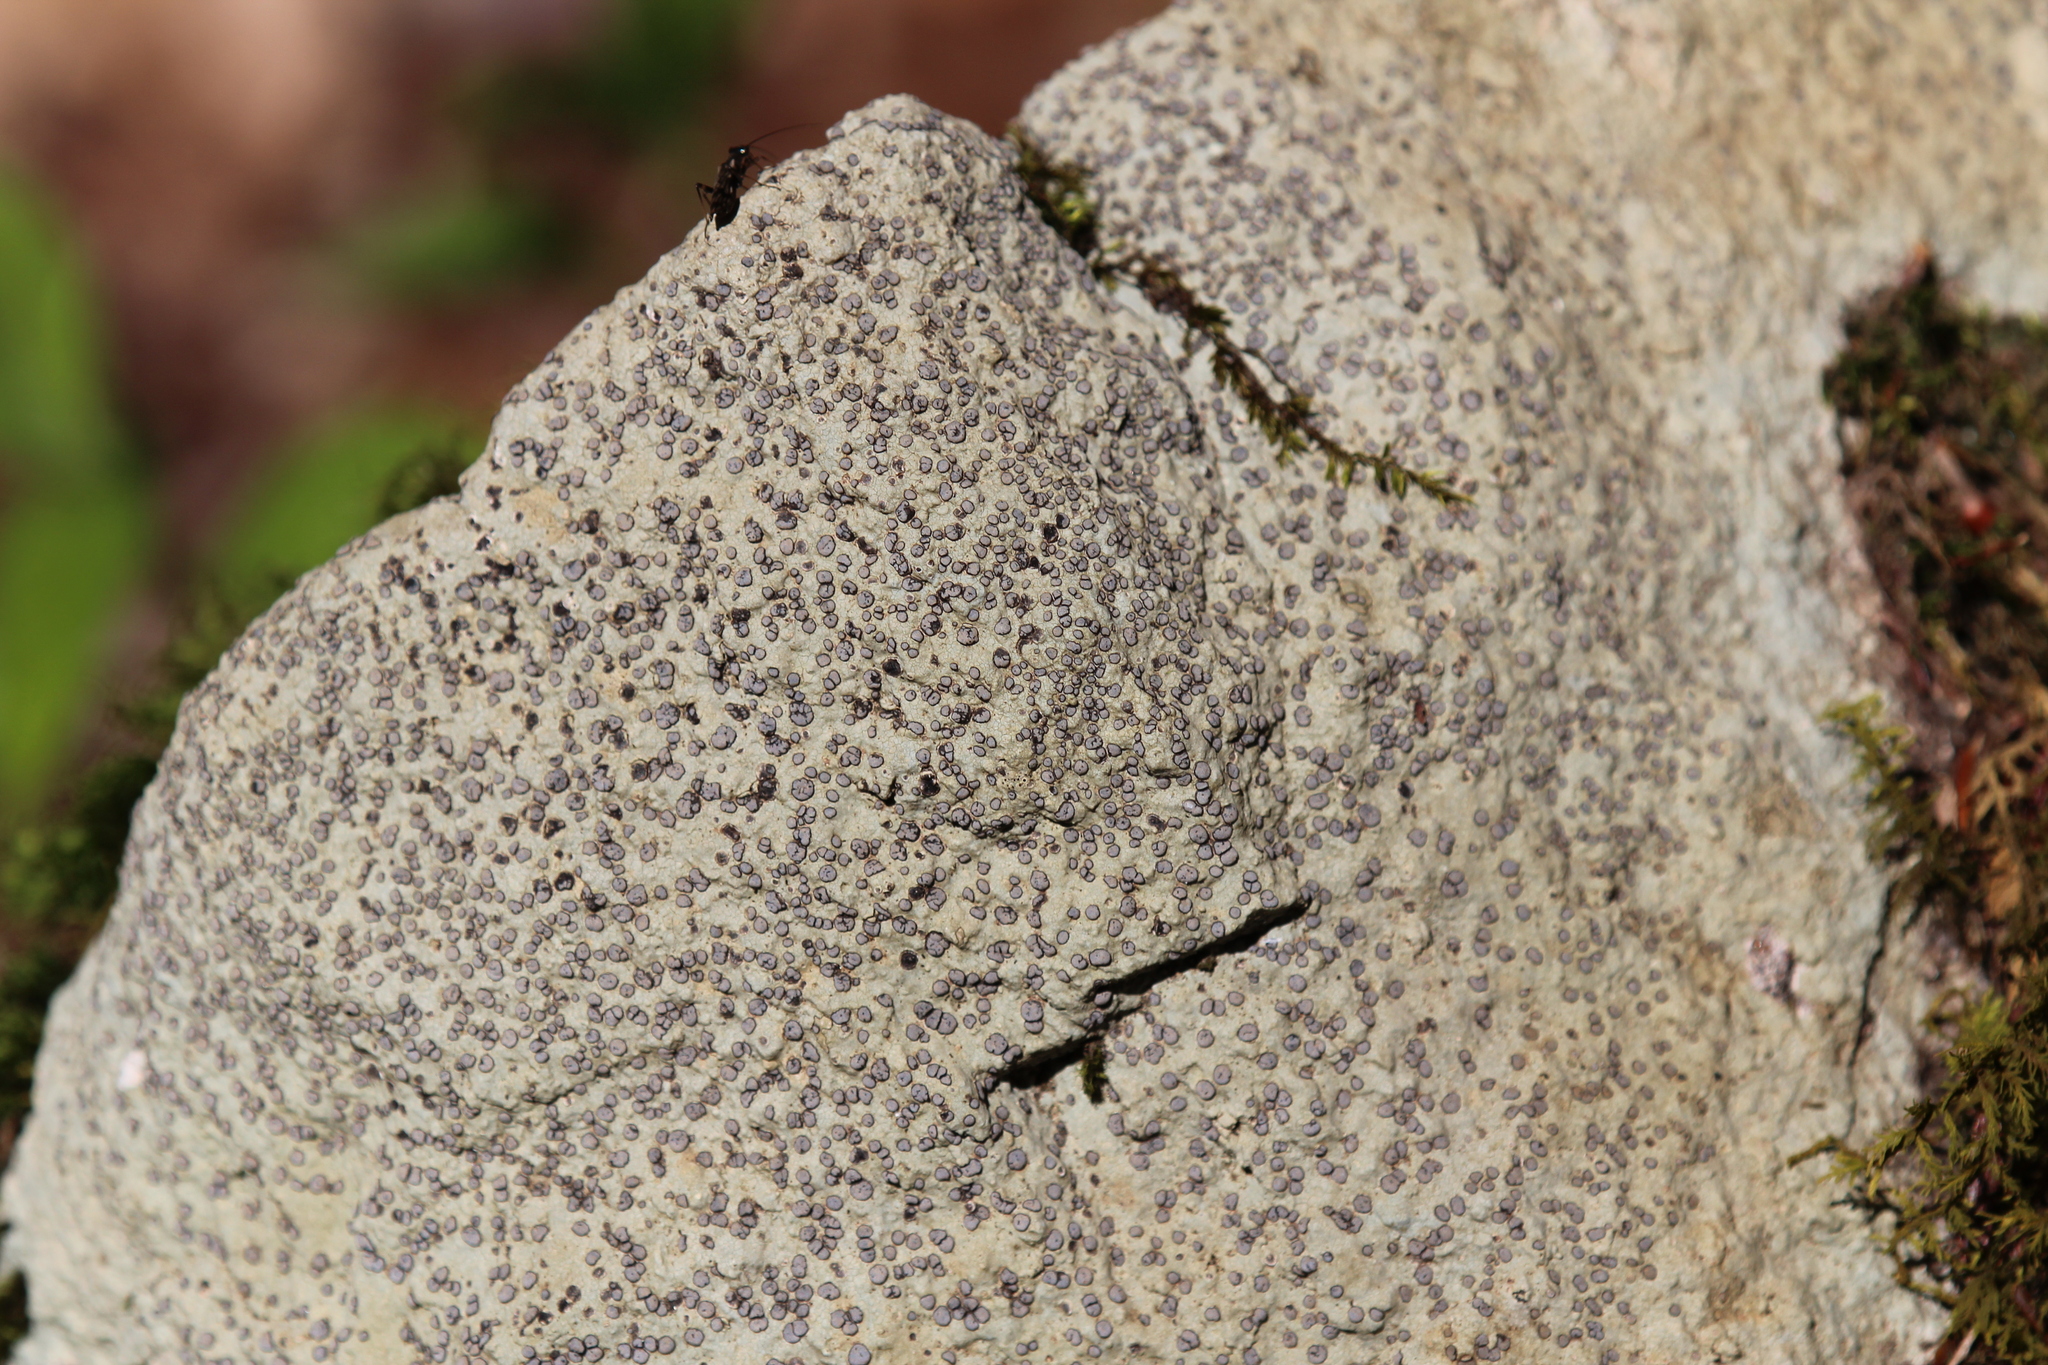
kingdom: Fungi
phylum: Ascomycota
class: Lecanoromycetes
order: Lecideales
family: Lecideaceae
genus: Porpidia
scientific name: Porpidia albocaerulescens
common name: Smokey-eyed boulder lichen
